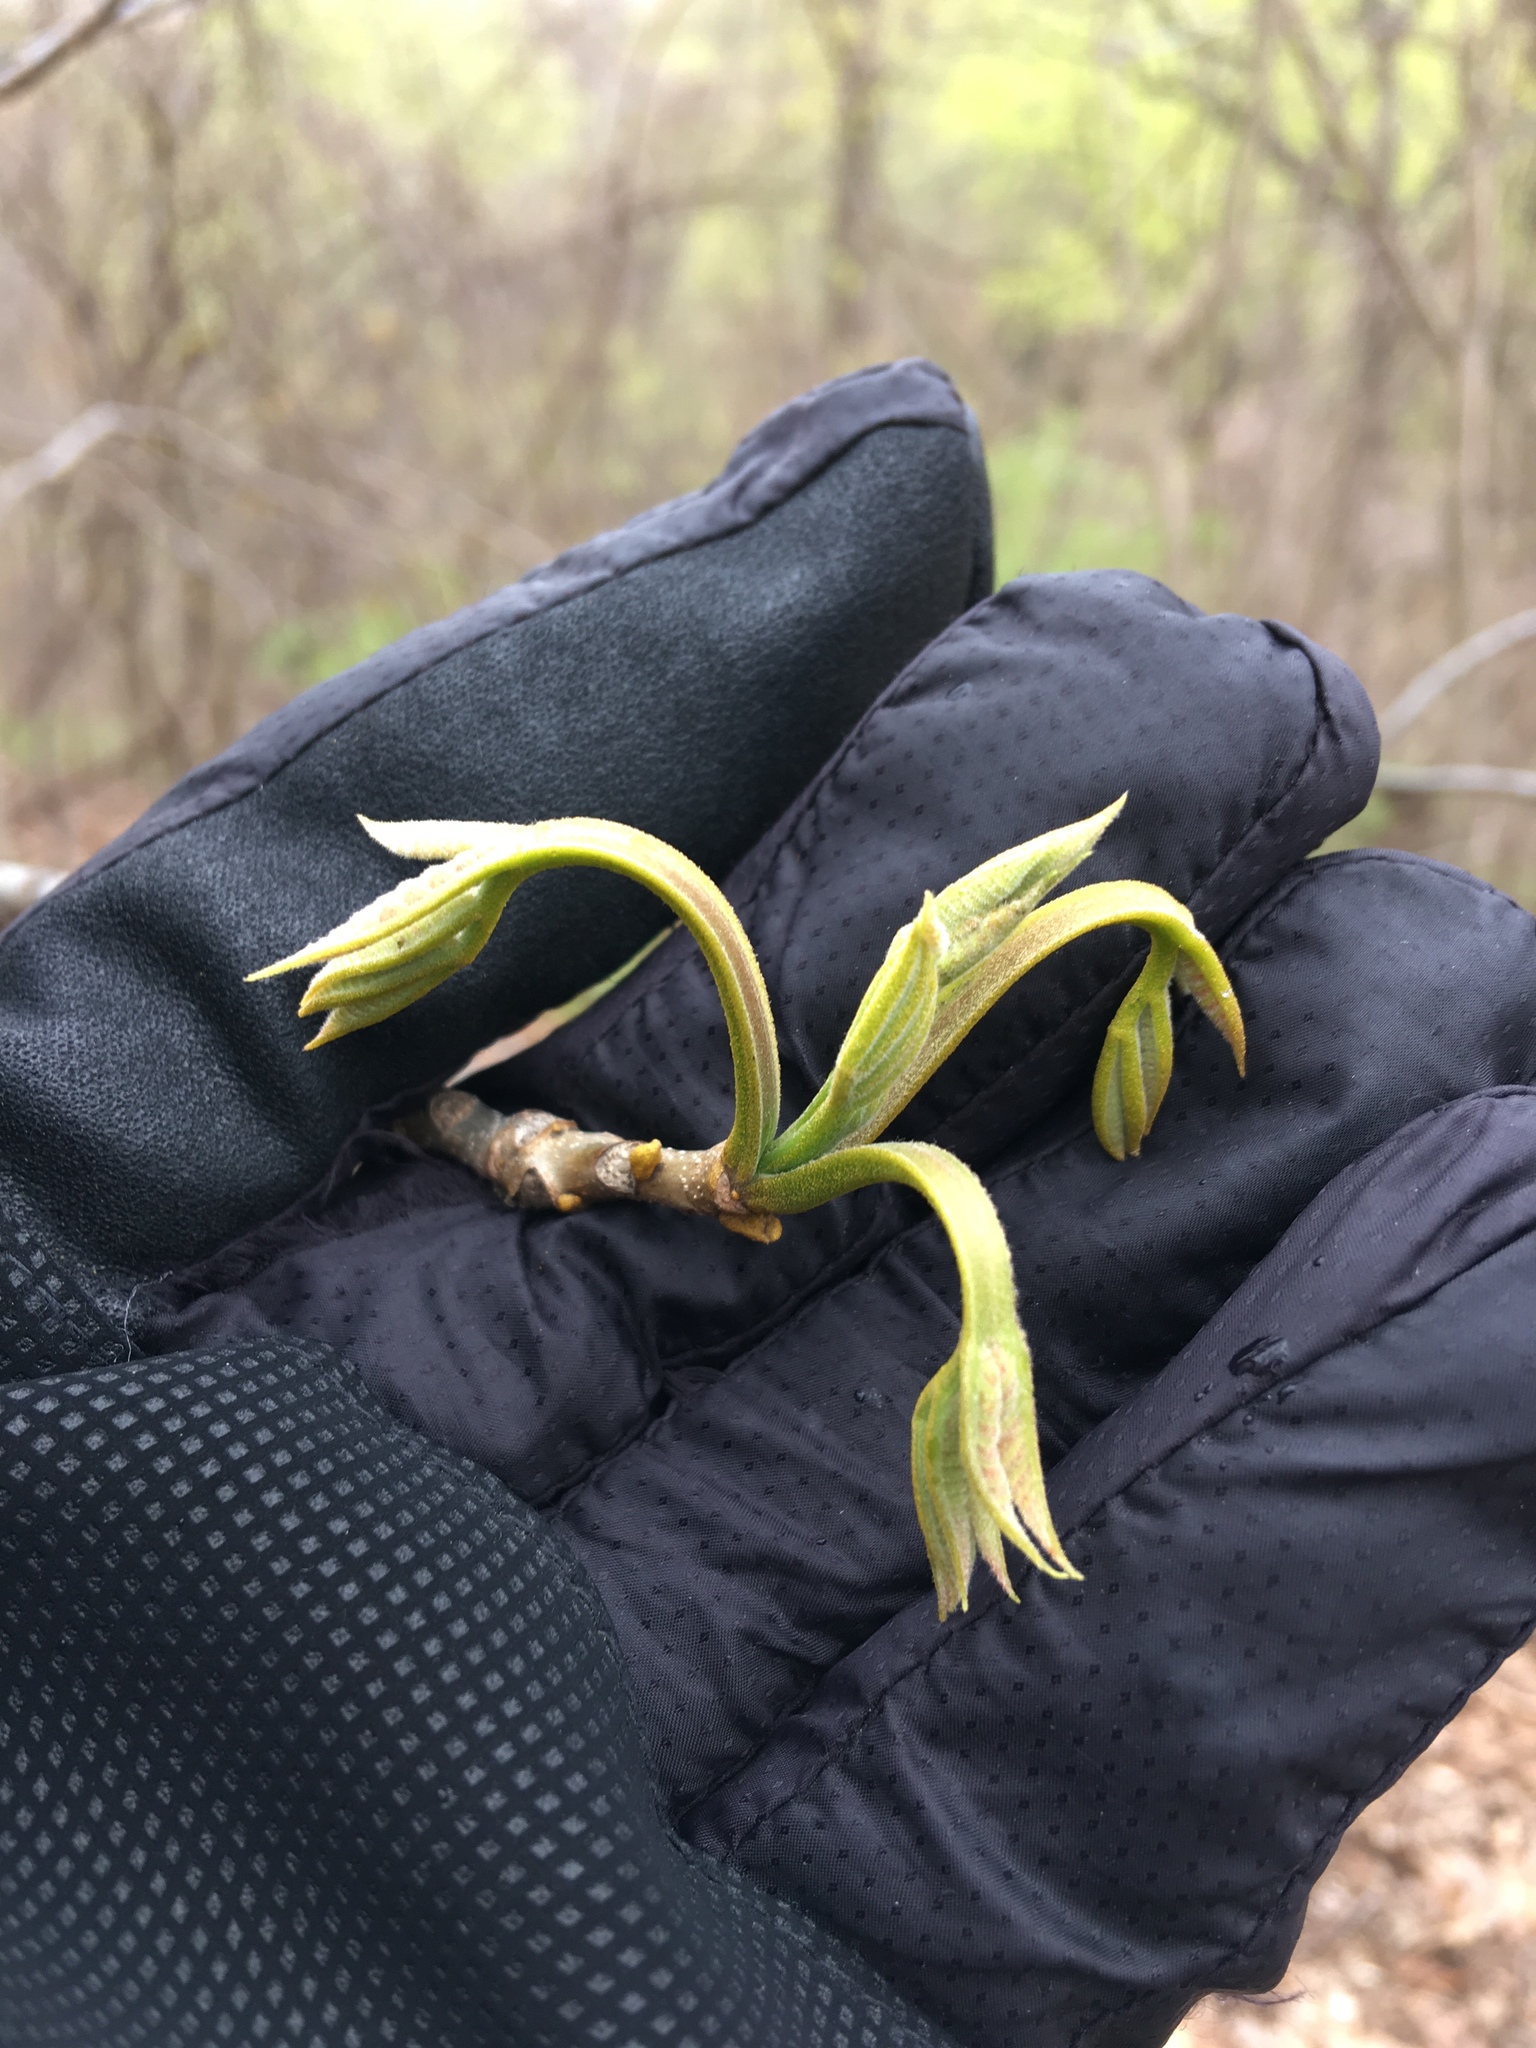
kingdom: Plantae
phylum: Tracheophyta
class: Magnoliopsida
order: Fagales
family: Juglandaceae
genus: Carya
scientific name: Carya cordiformis
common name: Bitternut hickory
